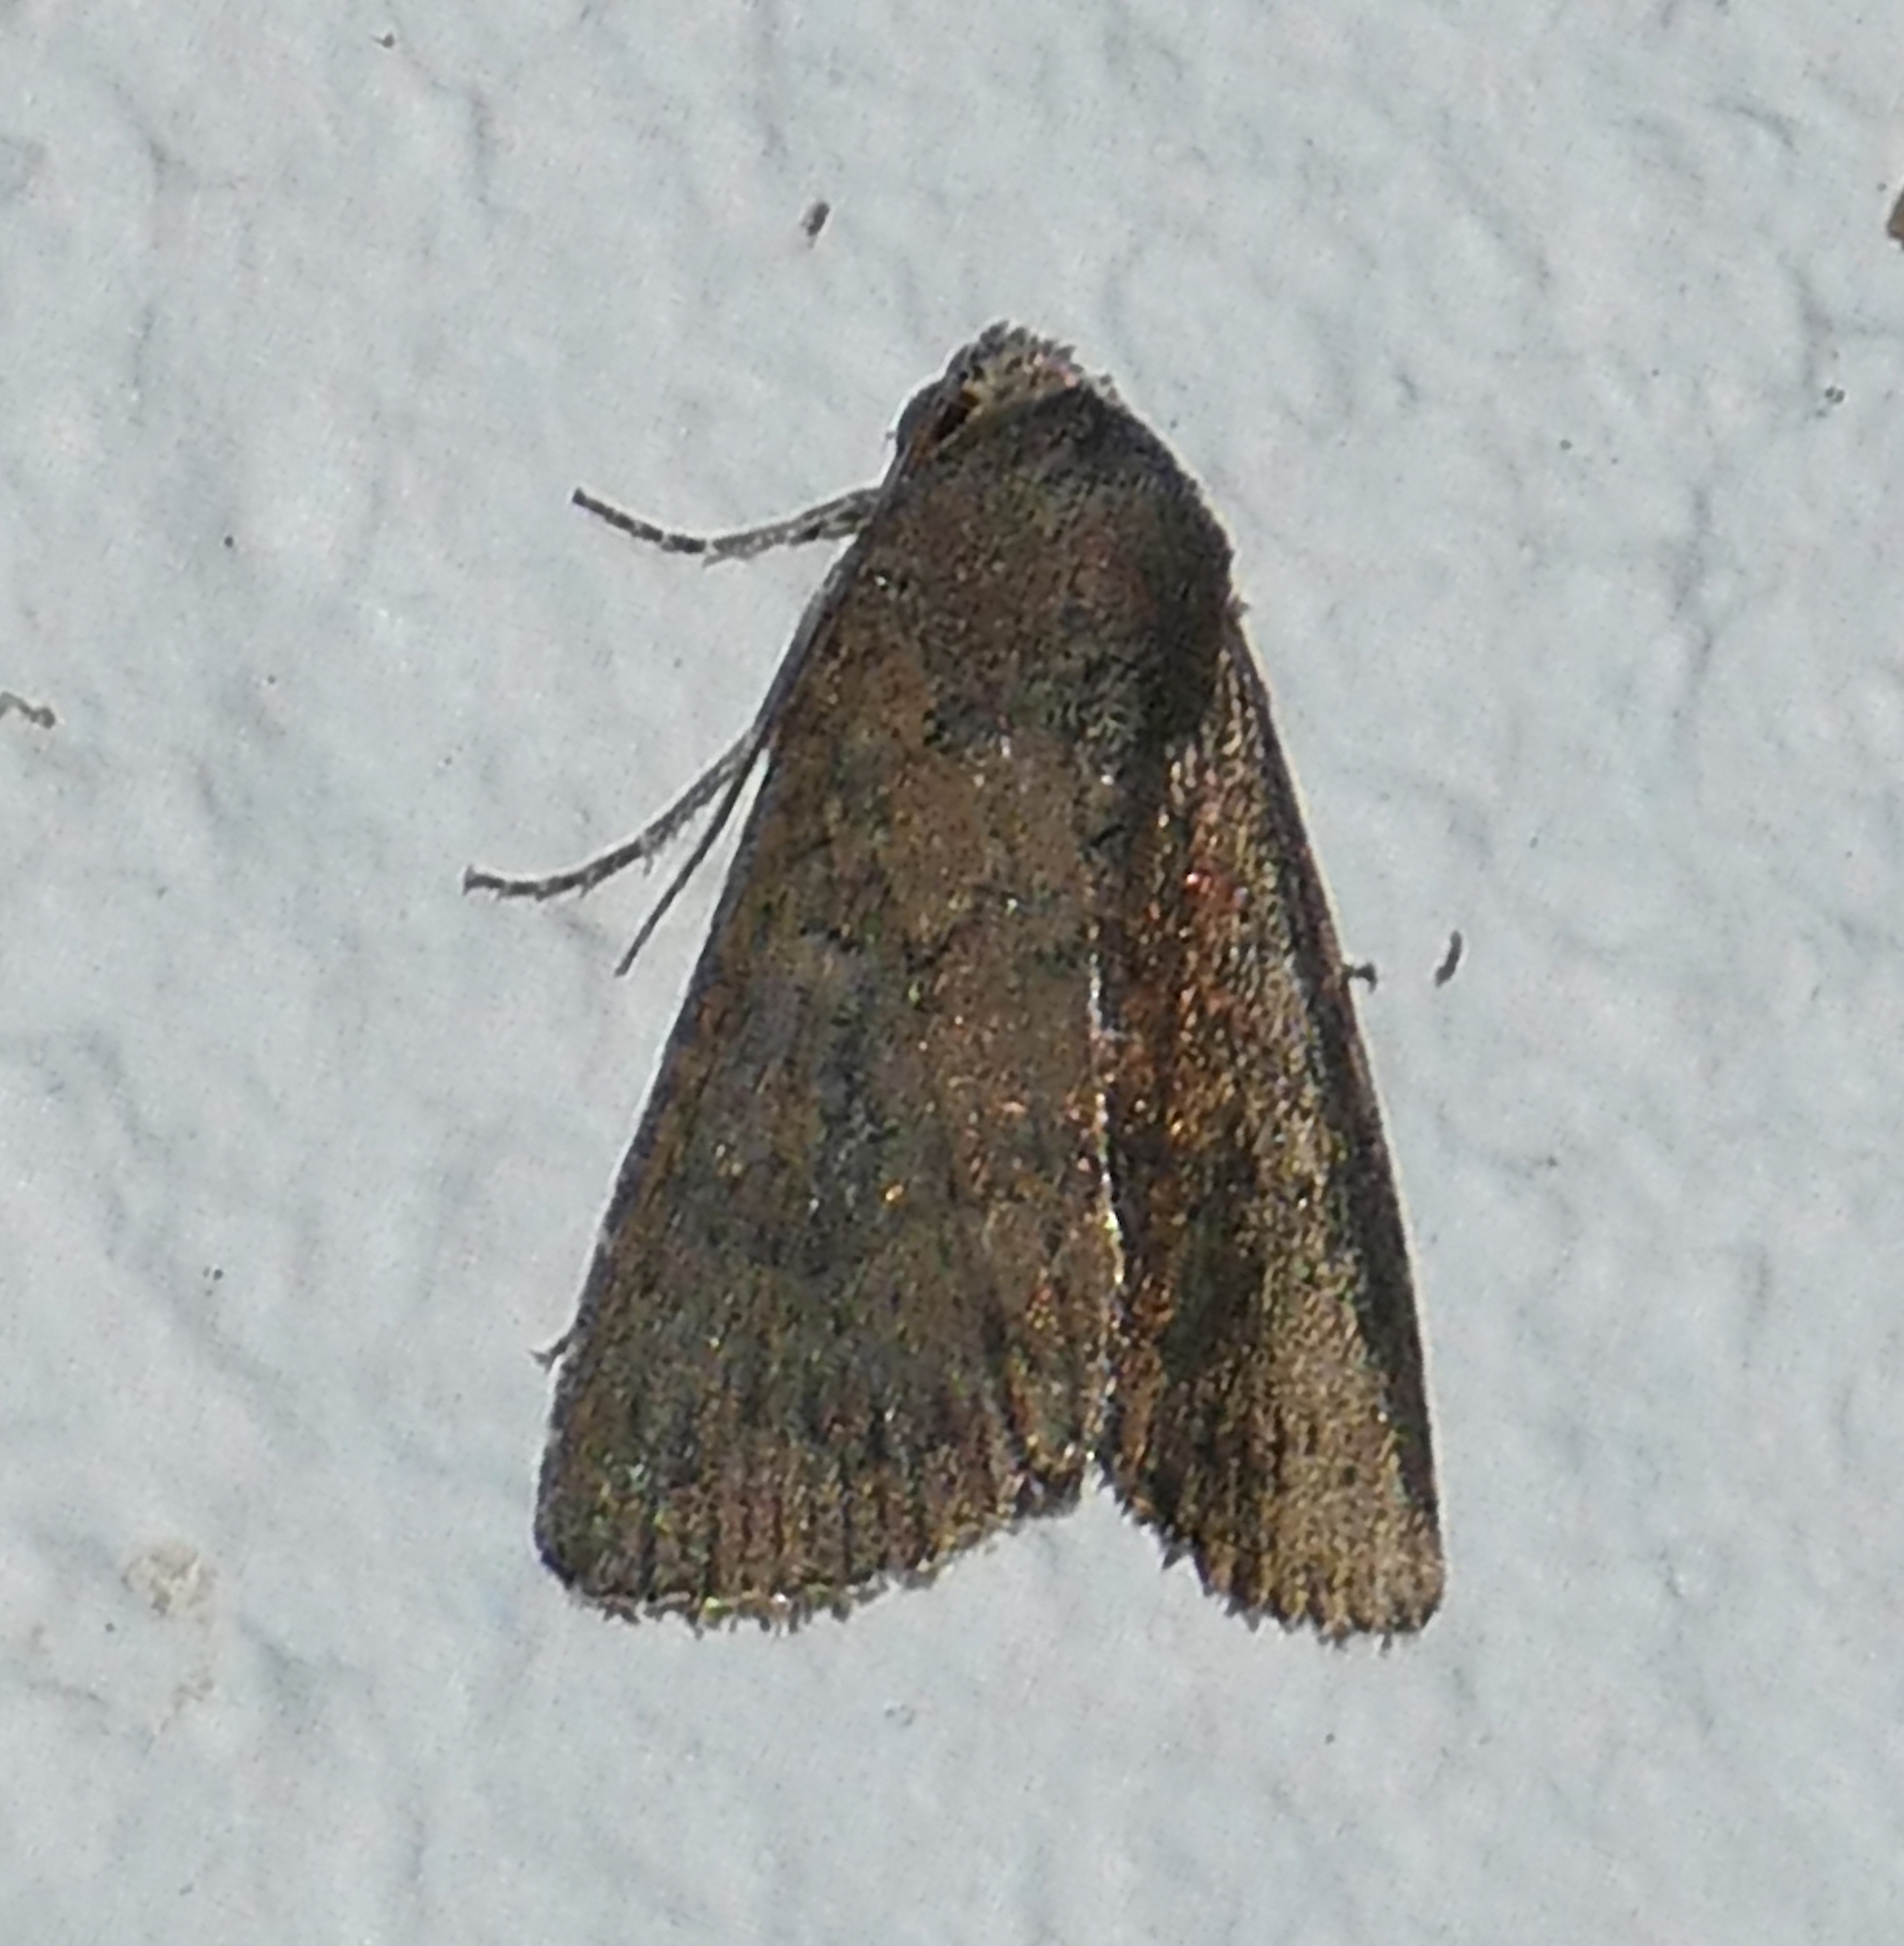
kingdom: Animalia
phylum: Arthropoda
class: Insecta
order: Lepidoptera
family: Noctuidae
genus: Condica
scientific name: Condica sutor
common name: Cobbler moth
